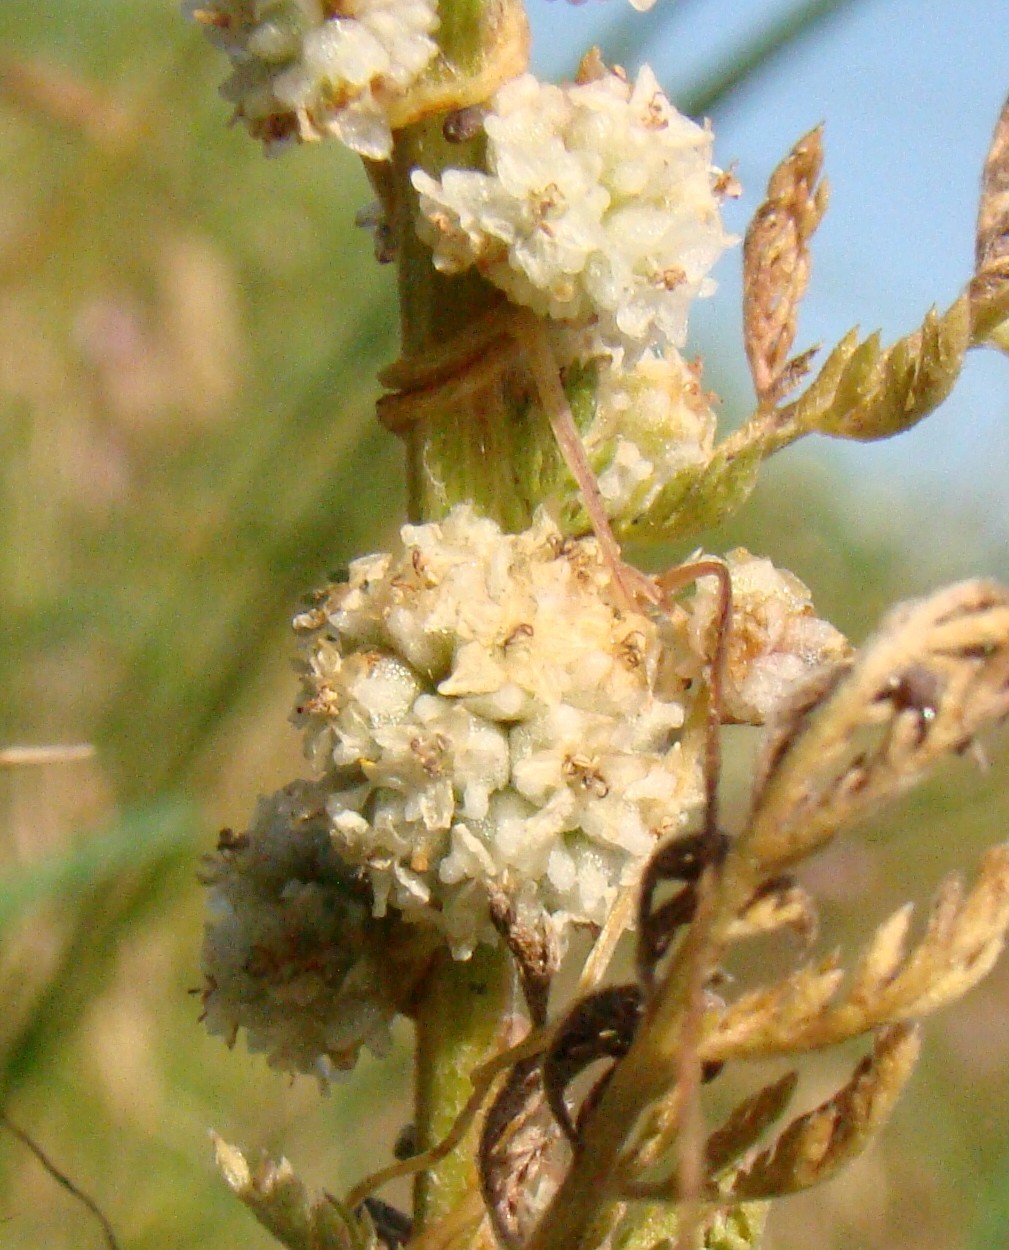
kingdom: Plantae
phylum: Tracheophyta
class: Magnoliopsida
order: Solanales
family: Convolvulaceae
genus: Cuscuta
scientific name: Cuscuta approximata
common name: Alfalfa dodder
